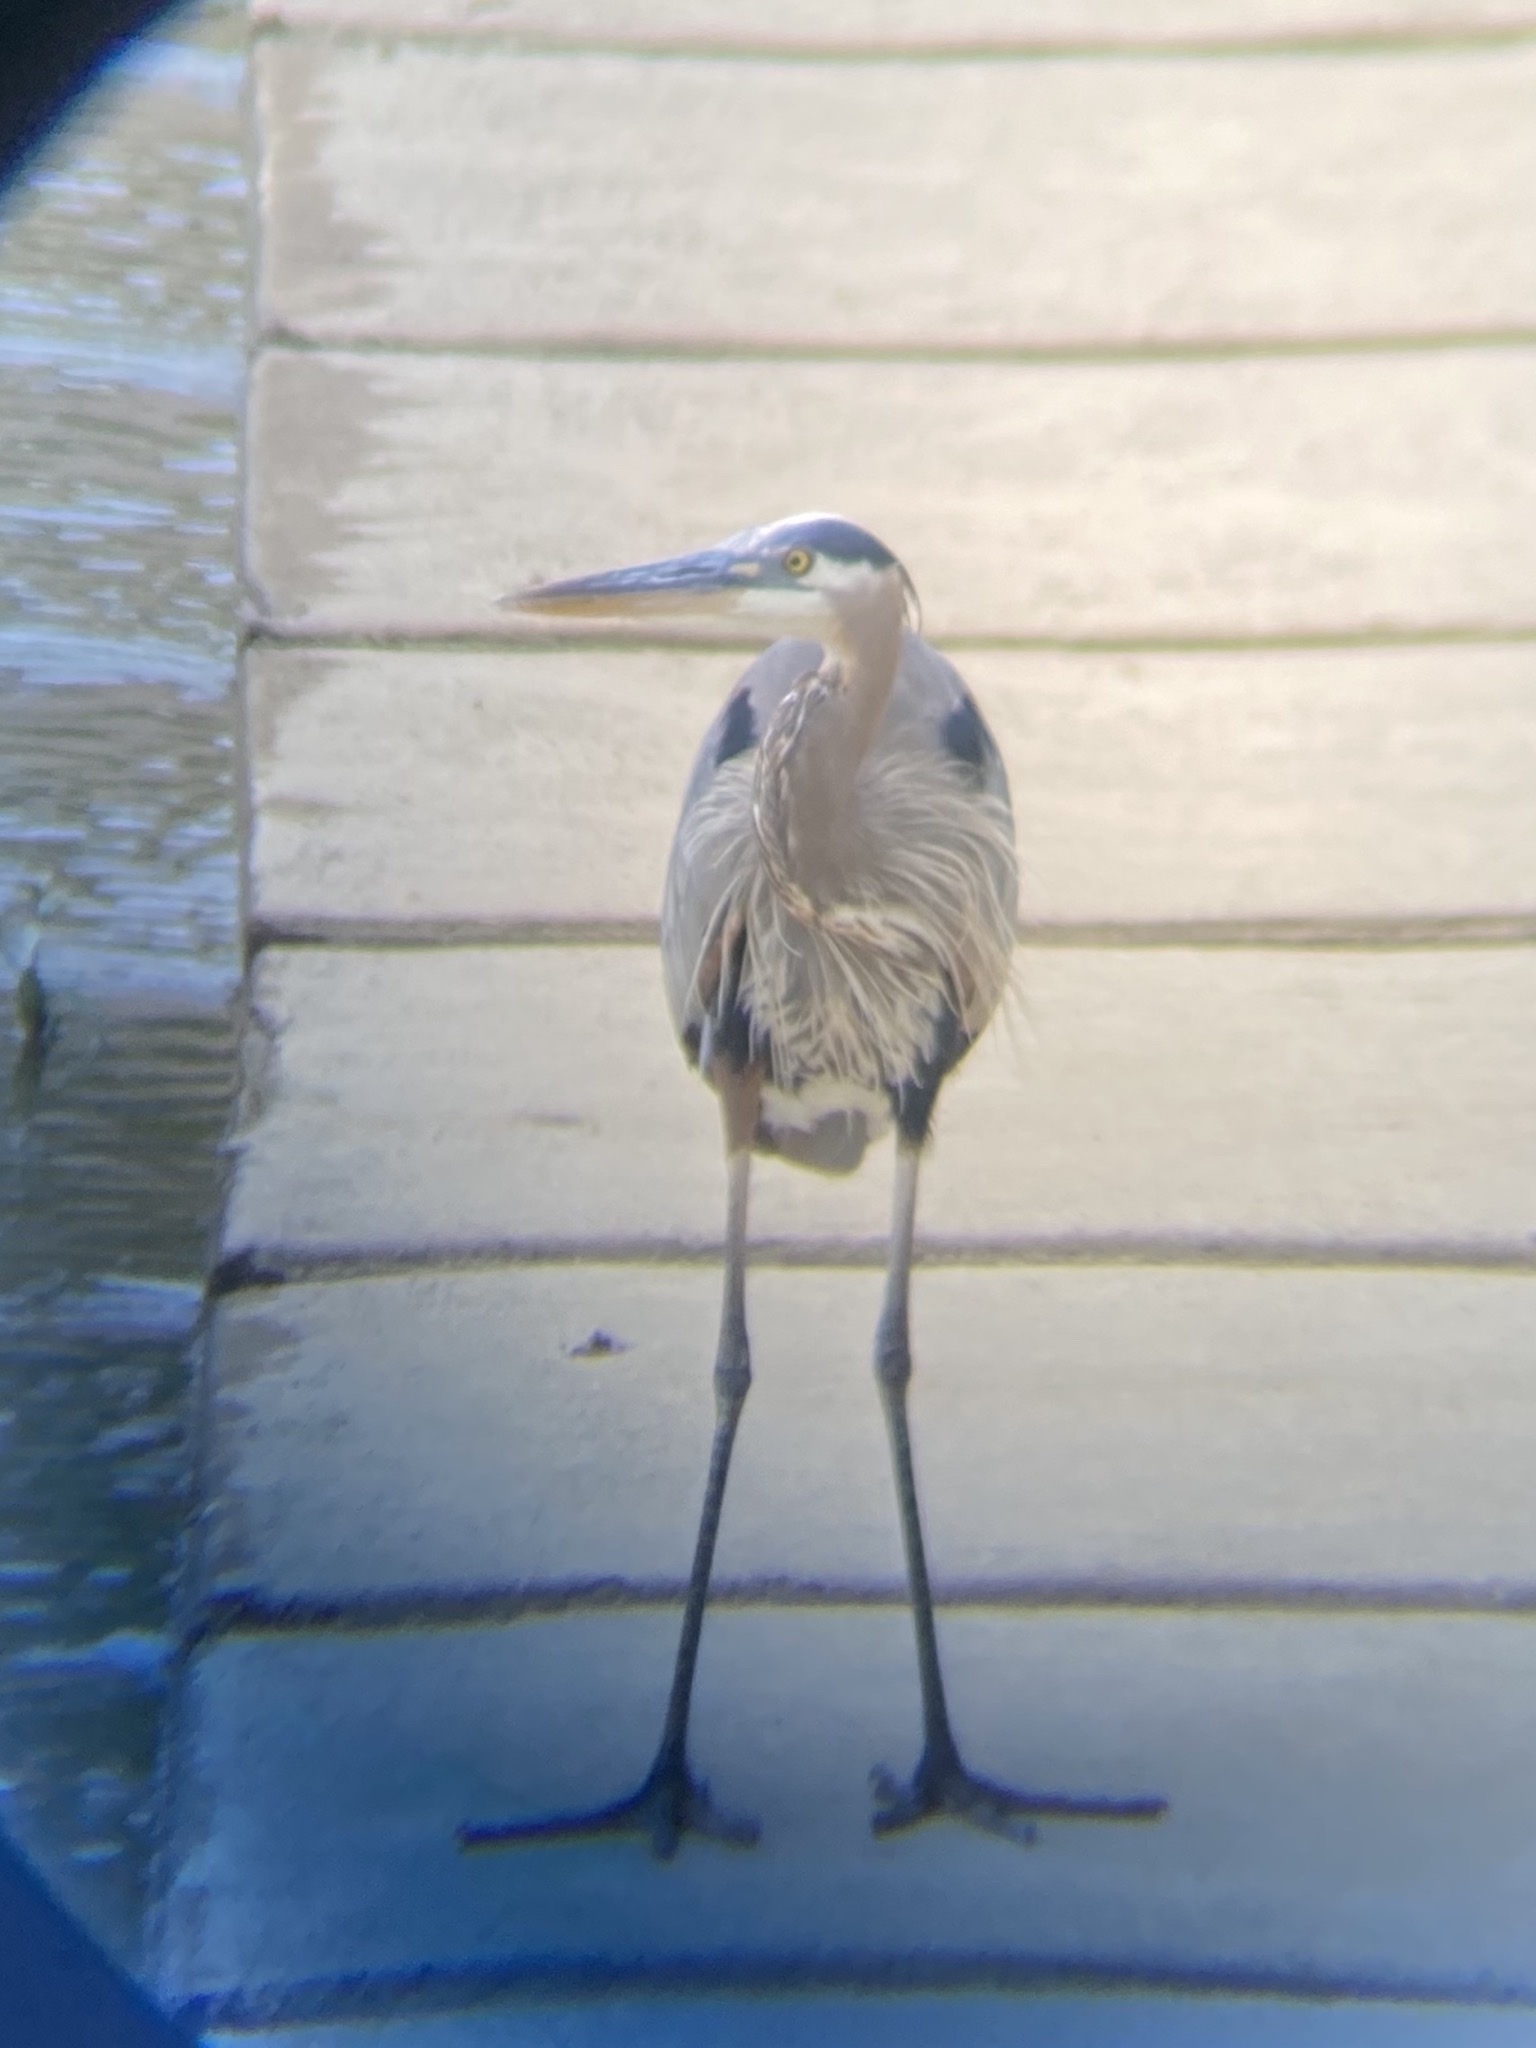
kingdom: Animalia
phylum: Chordata
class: Aves
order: Pelecaniformes
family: Ardeidae
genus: Ardea
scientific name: Ardea herodias
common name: Great blue heron
